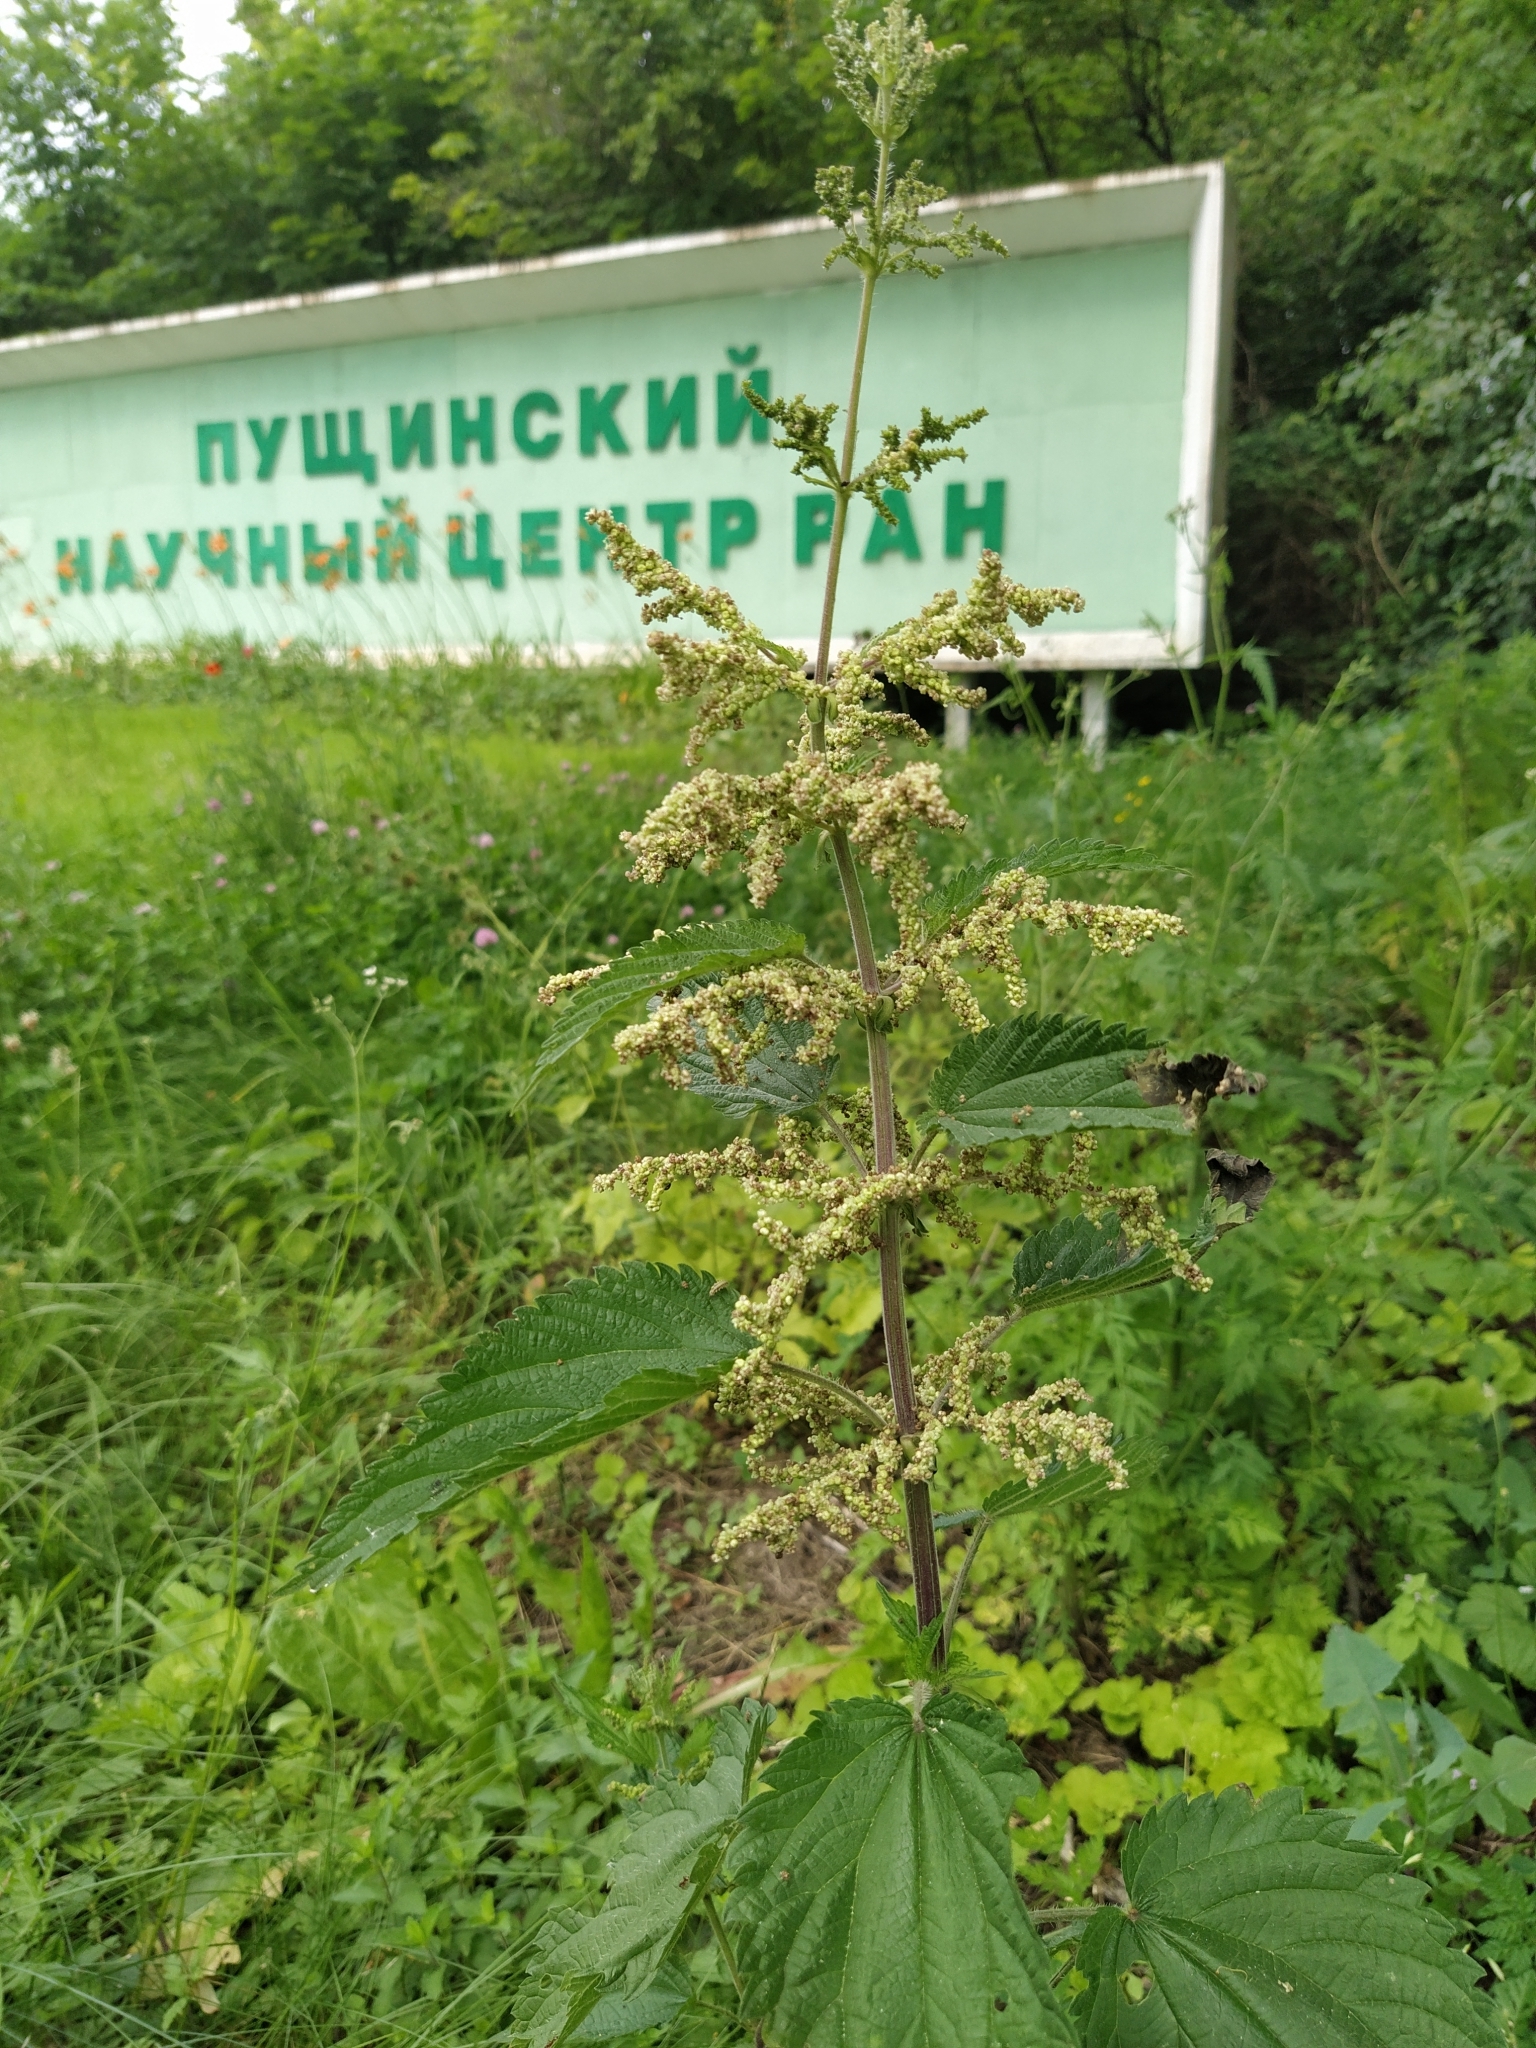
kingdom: Plantae
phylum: Tracheophyta
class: Magnoliopsida
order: Rosales
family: Urticaceae
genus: Urtica
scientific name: Urtica dioica
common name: Common nettle
